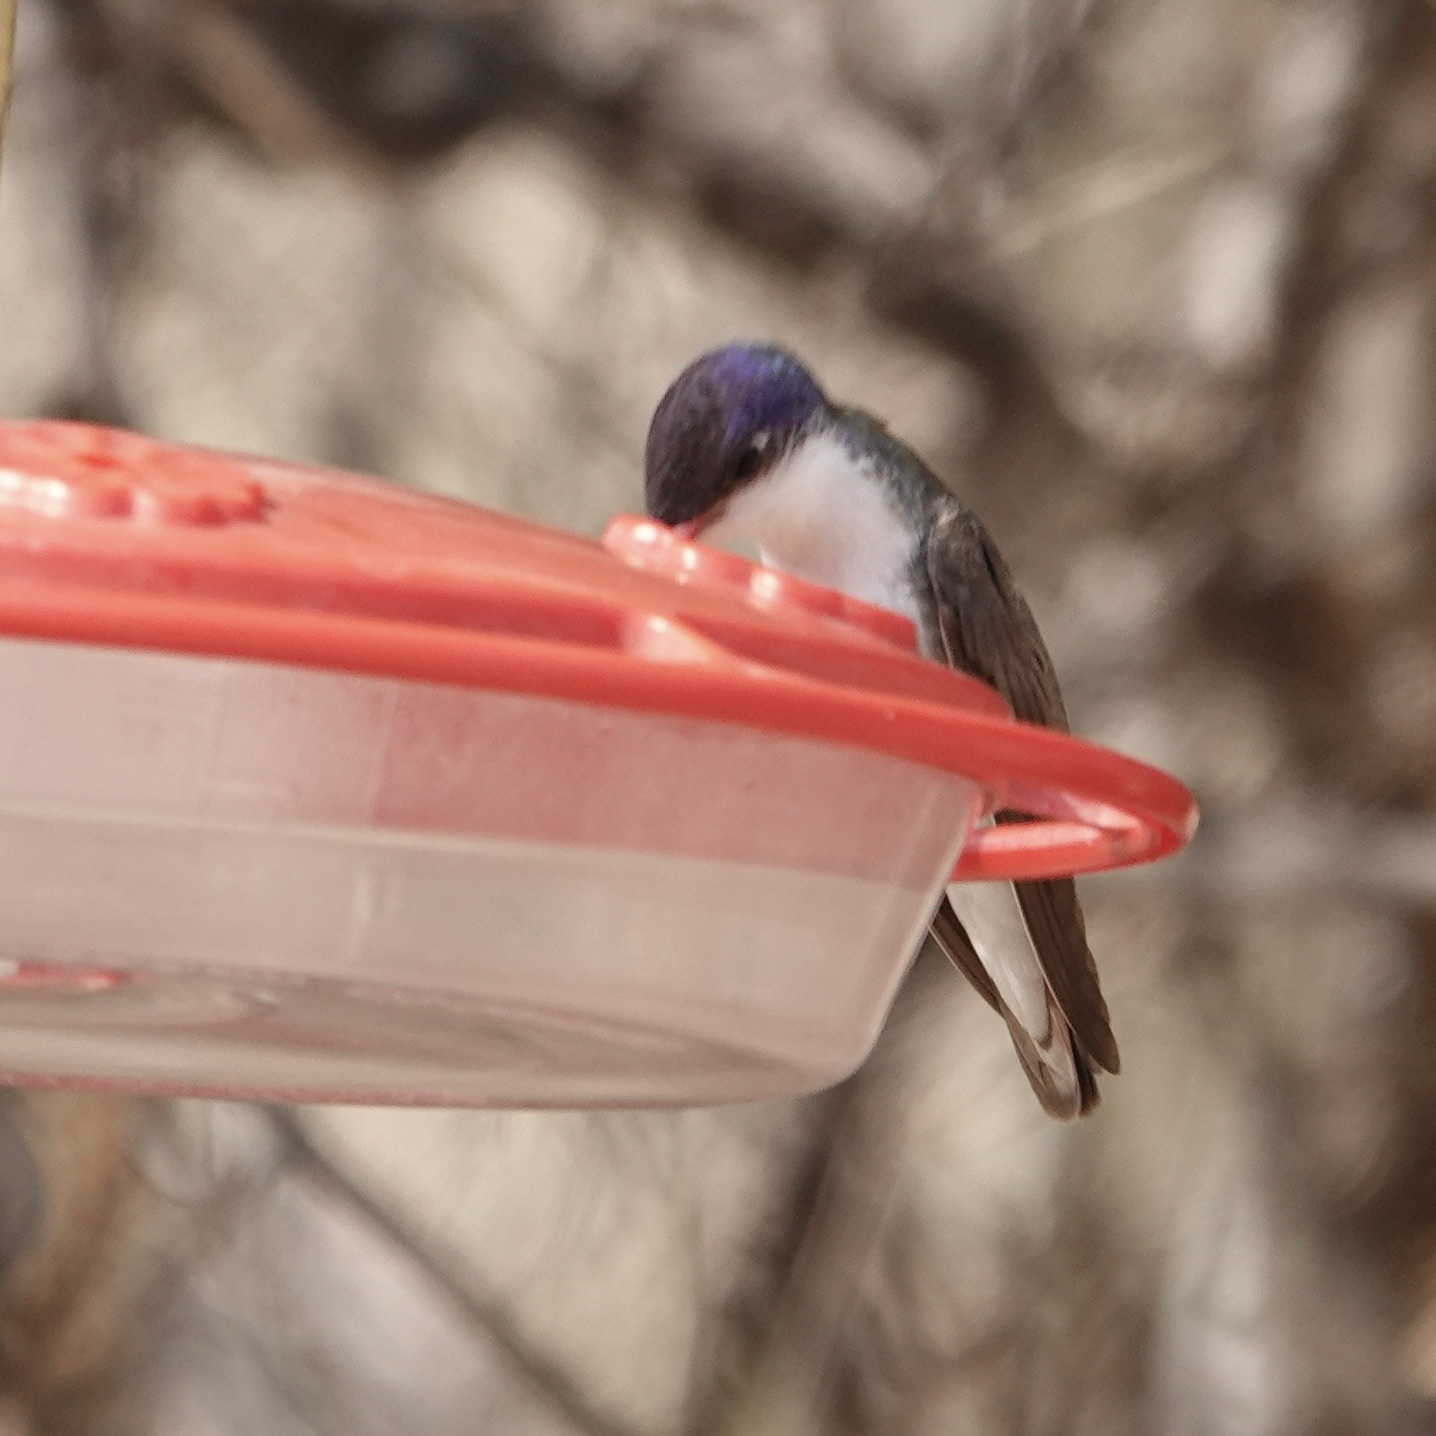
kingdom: Animalia
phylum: Chordata
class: Aves
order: Apodiformes
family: Trochilidae
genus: Leucolia
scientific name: Leucolia violiceps
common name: Violet-crowned hummingbird
